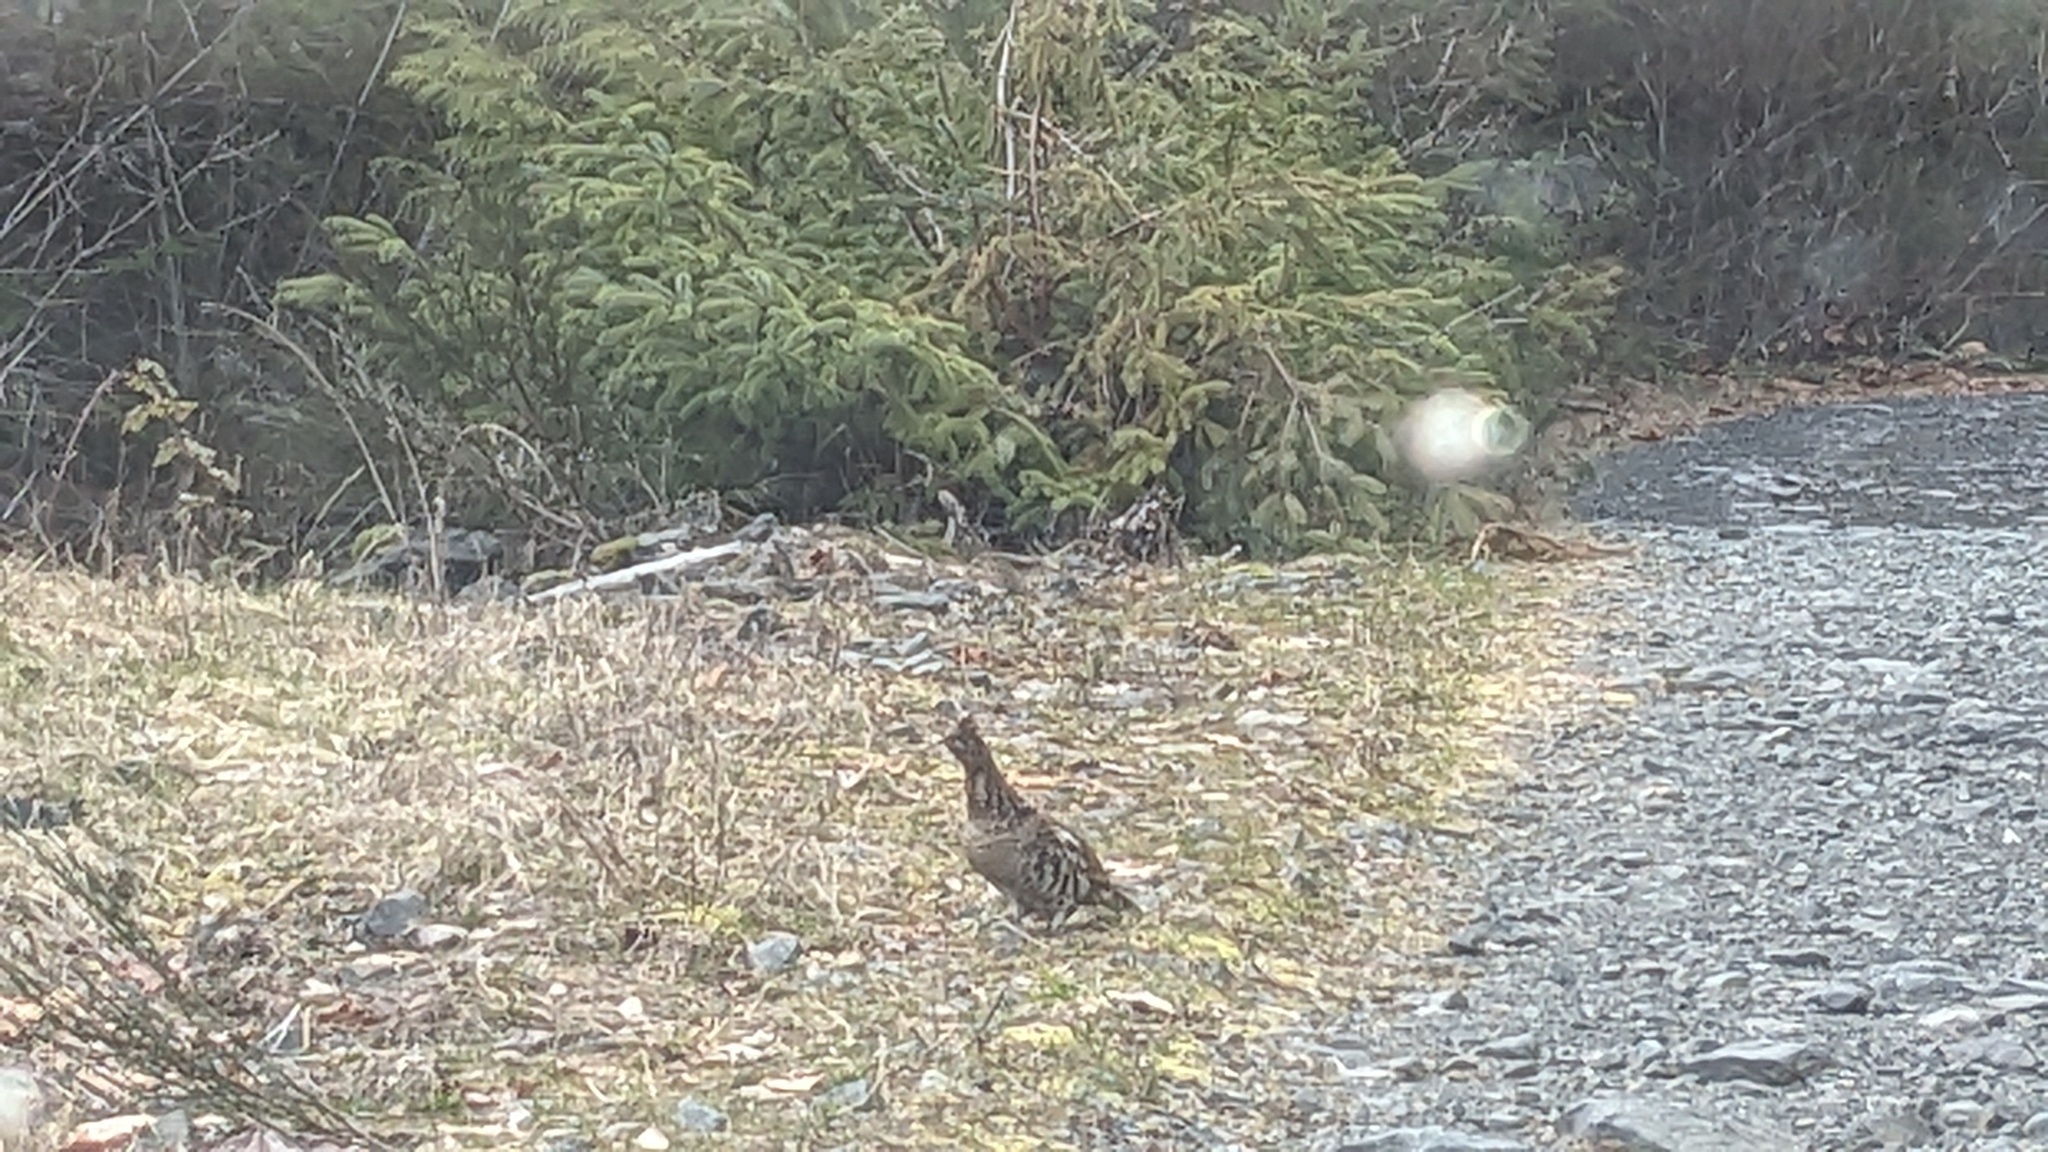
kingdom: Animalia
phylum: Chordata
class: Aves
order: Galliformes
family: Phasianidae
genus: Bonasa
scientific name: Bonasa umbellus
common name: Ruffed grouse
